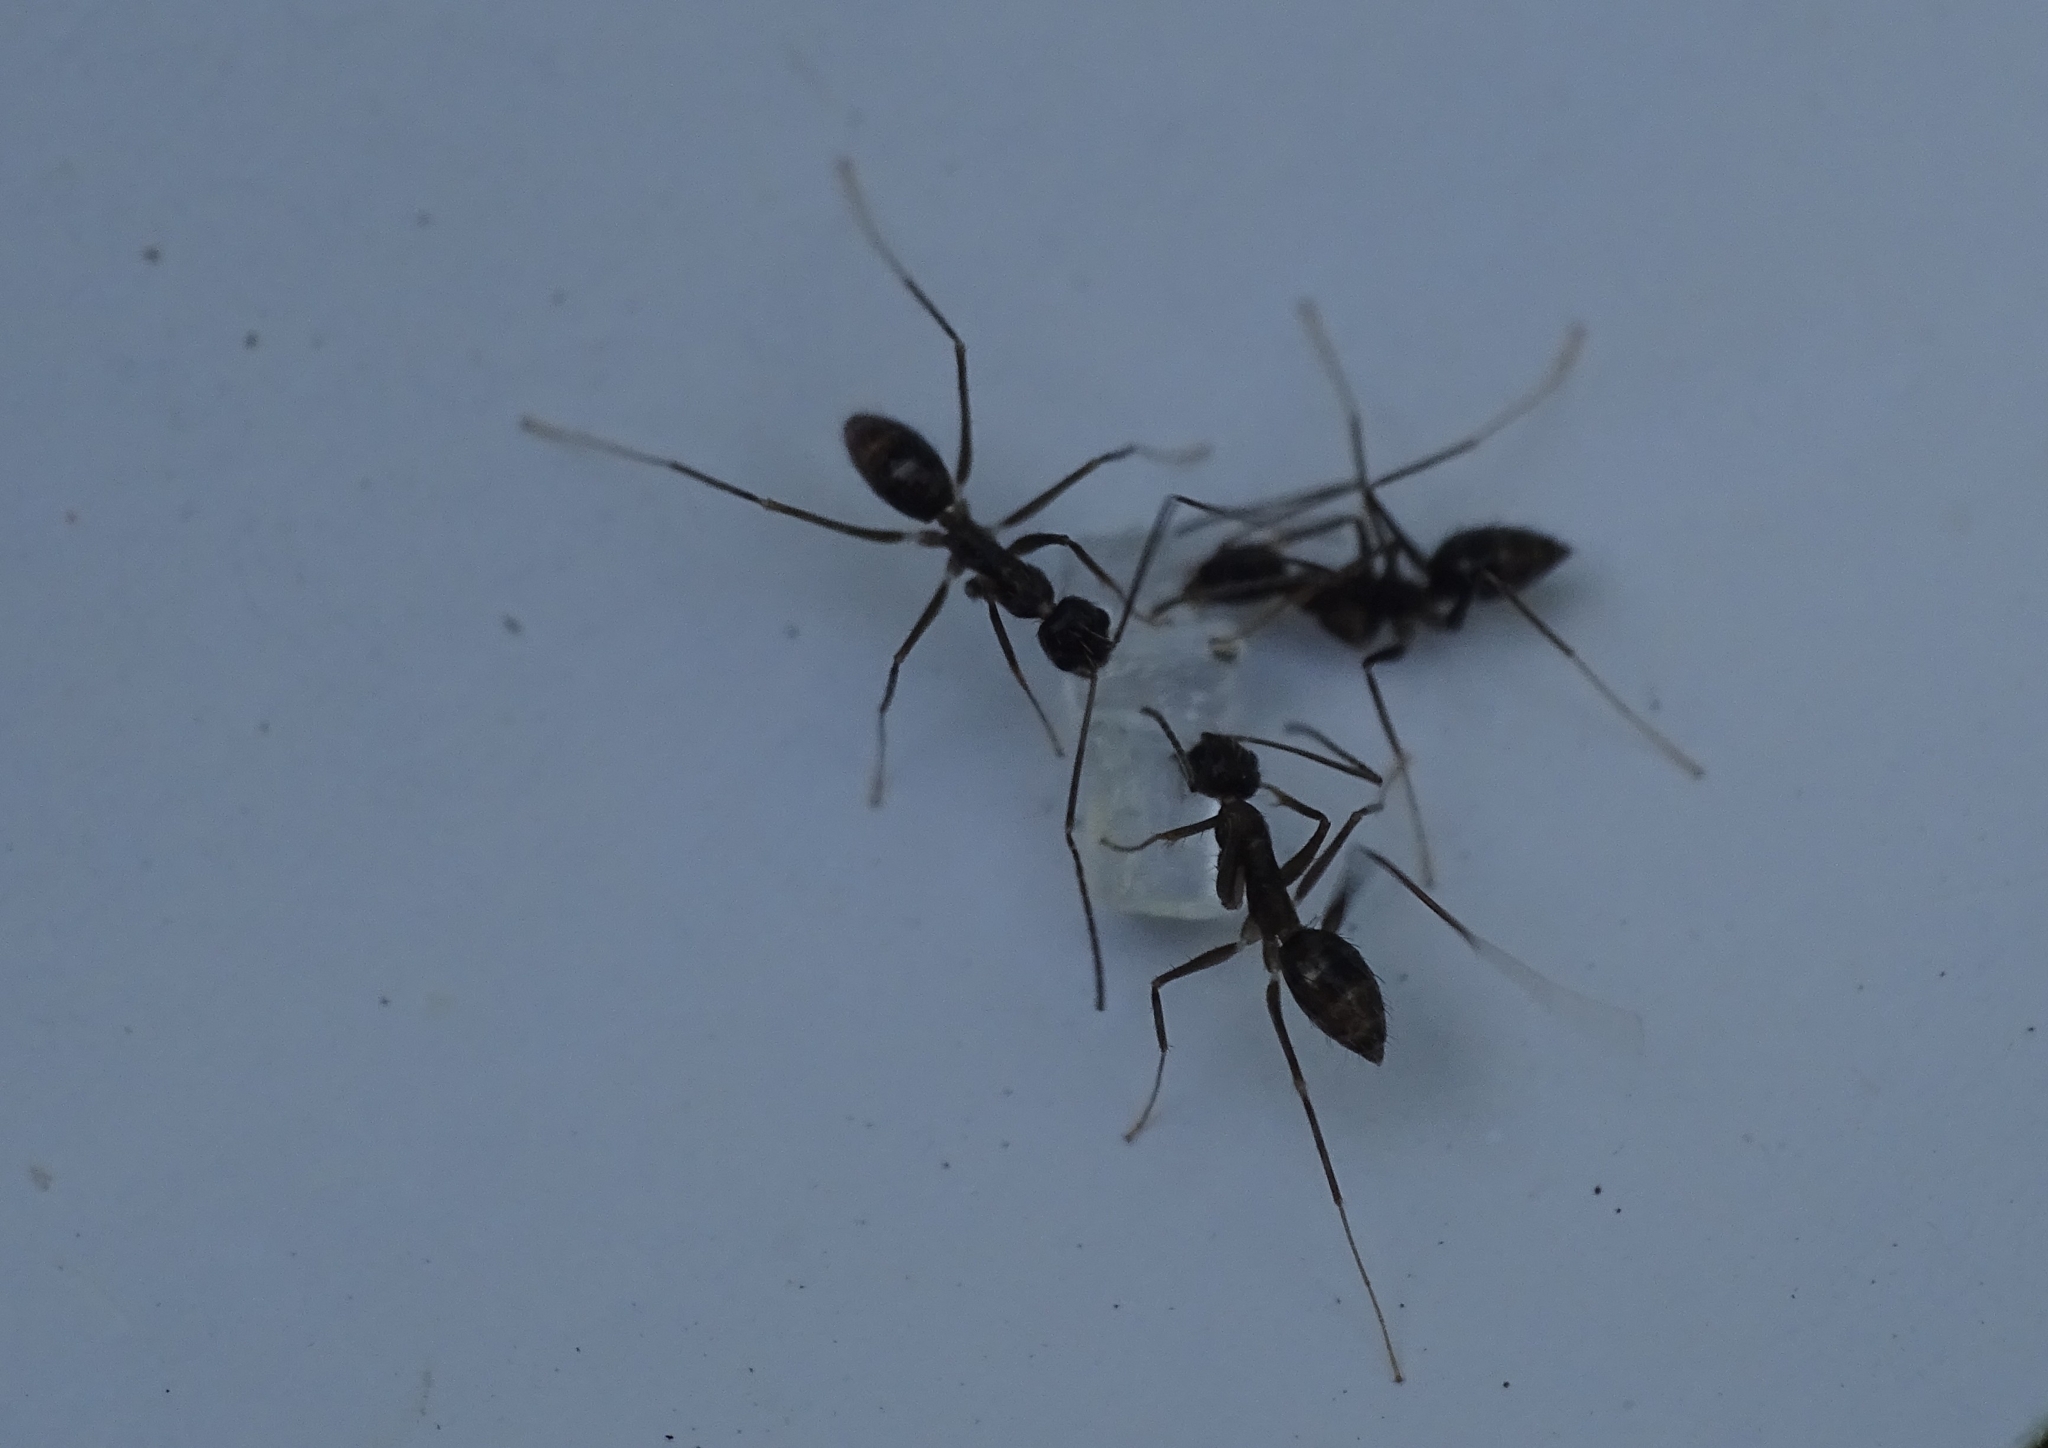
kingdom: Animalia
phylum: Arthropoda
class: Insecta
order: Hymenoptera
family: Formicidae
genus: Paratrechina
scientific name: Paratrechina longicornis
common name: Longhorned crazy ant
